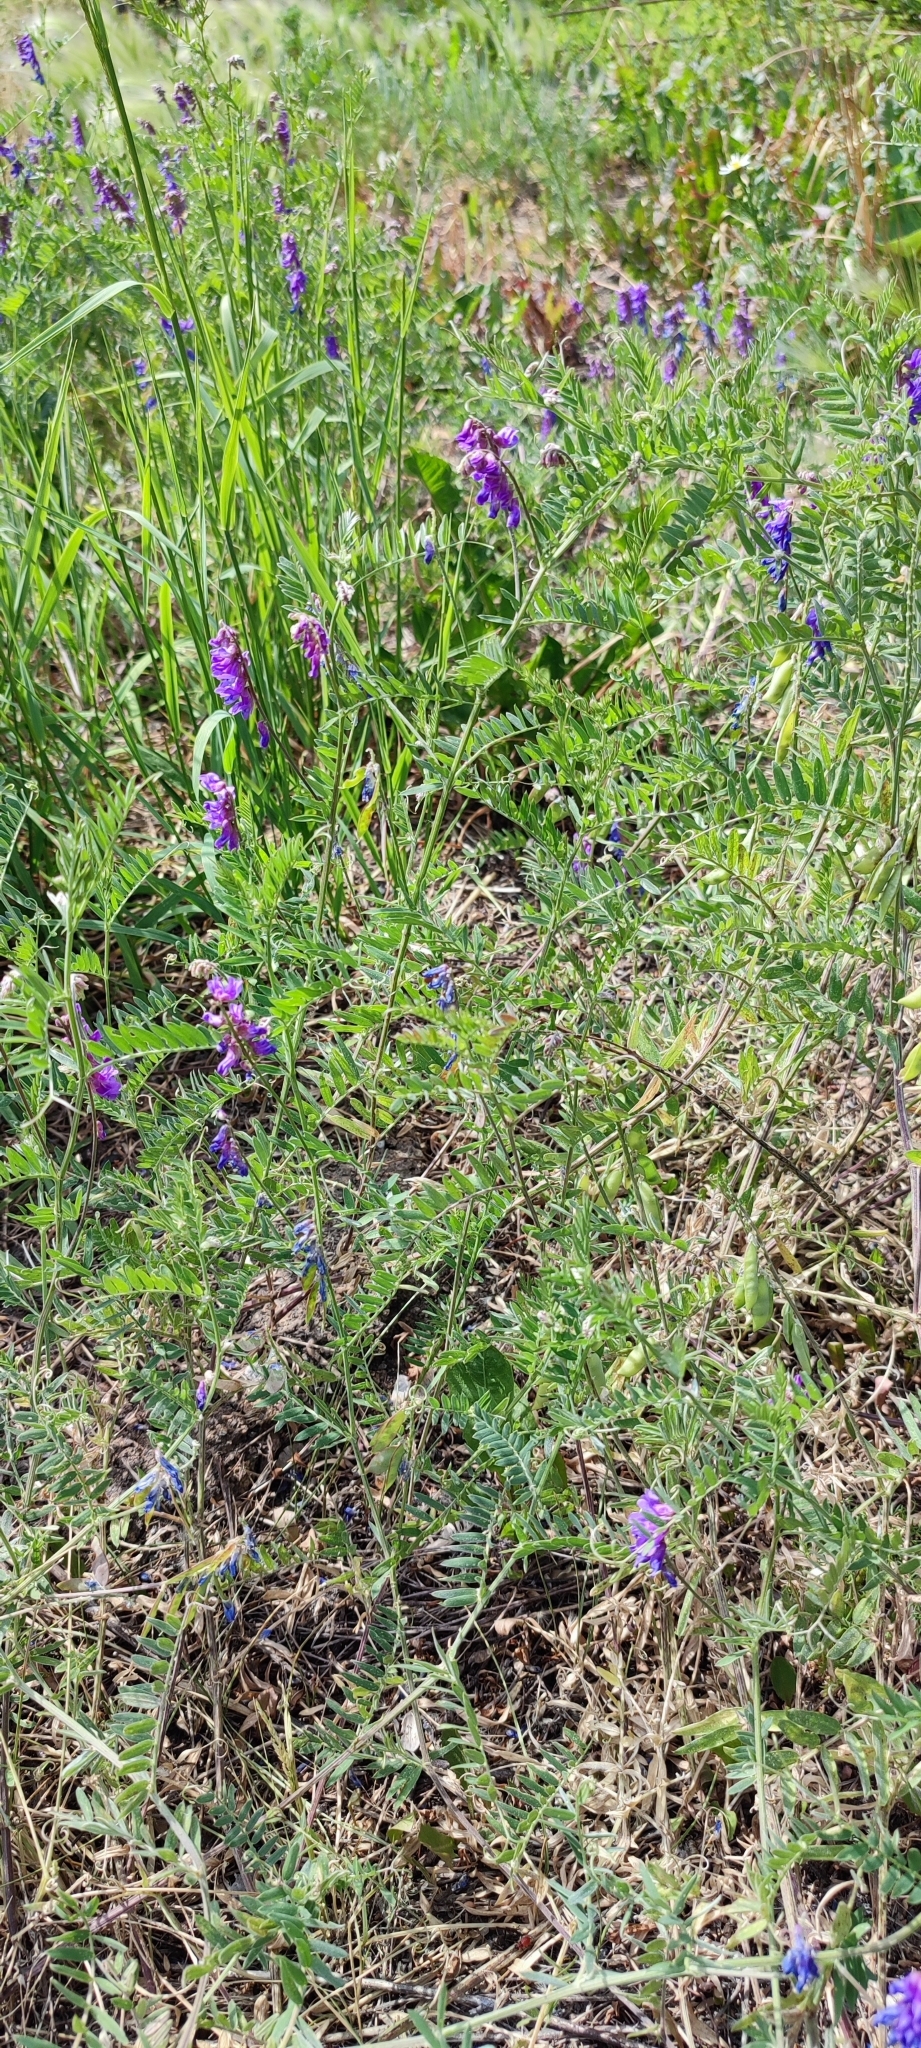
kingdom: Plantae
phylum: Tracheophyta
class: Magnoliopsida
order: Fabales
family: Fabaceae
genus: Vicia
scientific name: Vicia cracca
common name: Bird vetch
